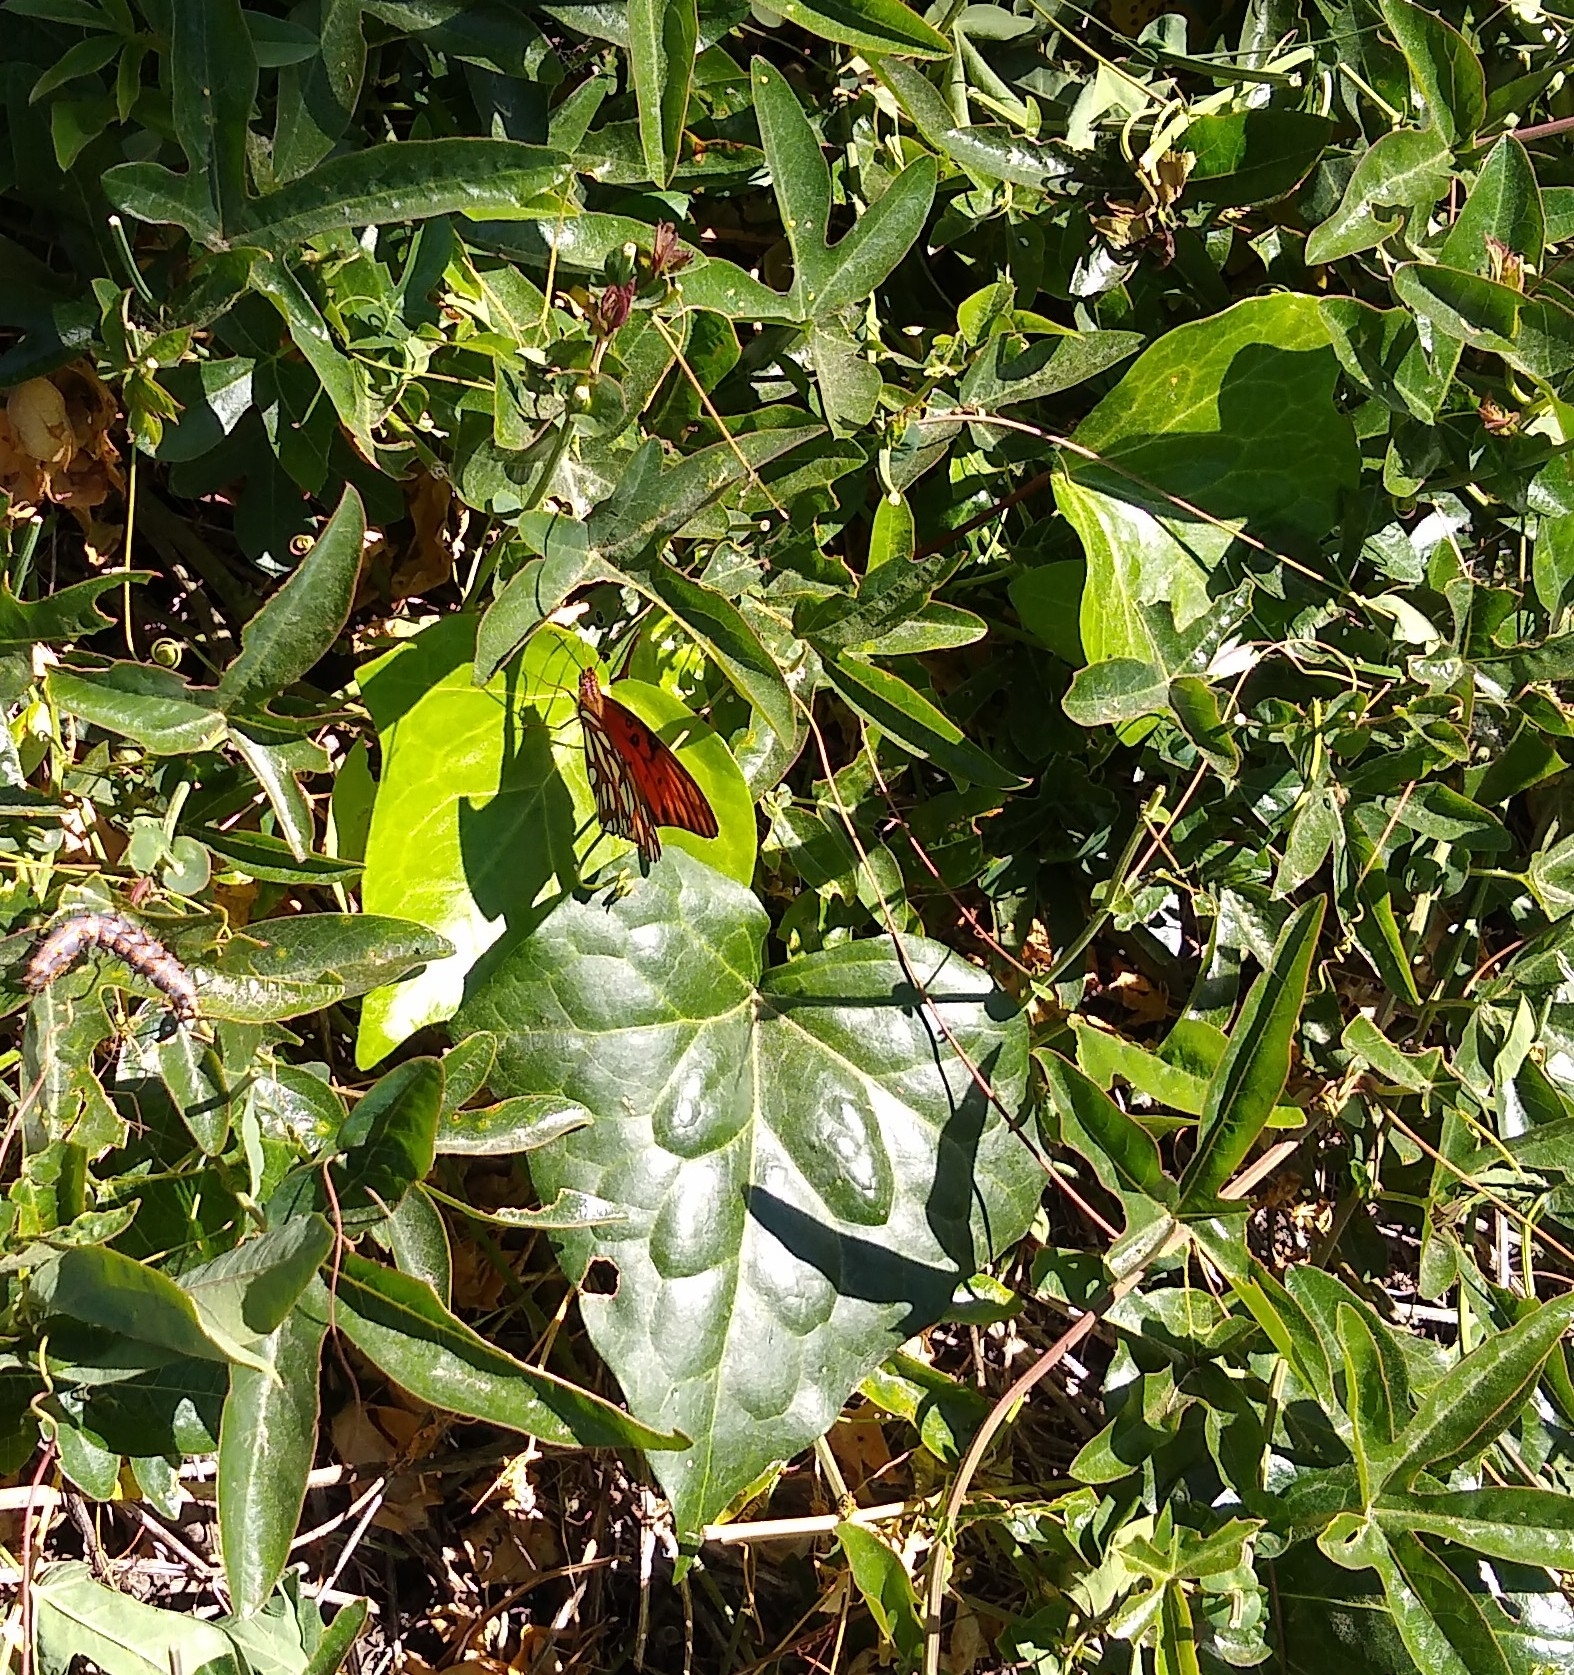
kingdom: Animalia
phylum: Arthropoda
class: Insecta
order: Lepidoptera
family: Nymphalidae
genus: Dione
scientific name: Dione vanillae
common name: Gulf fritillary
